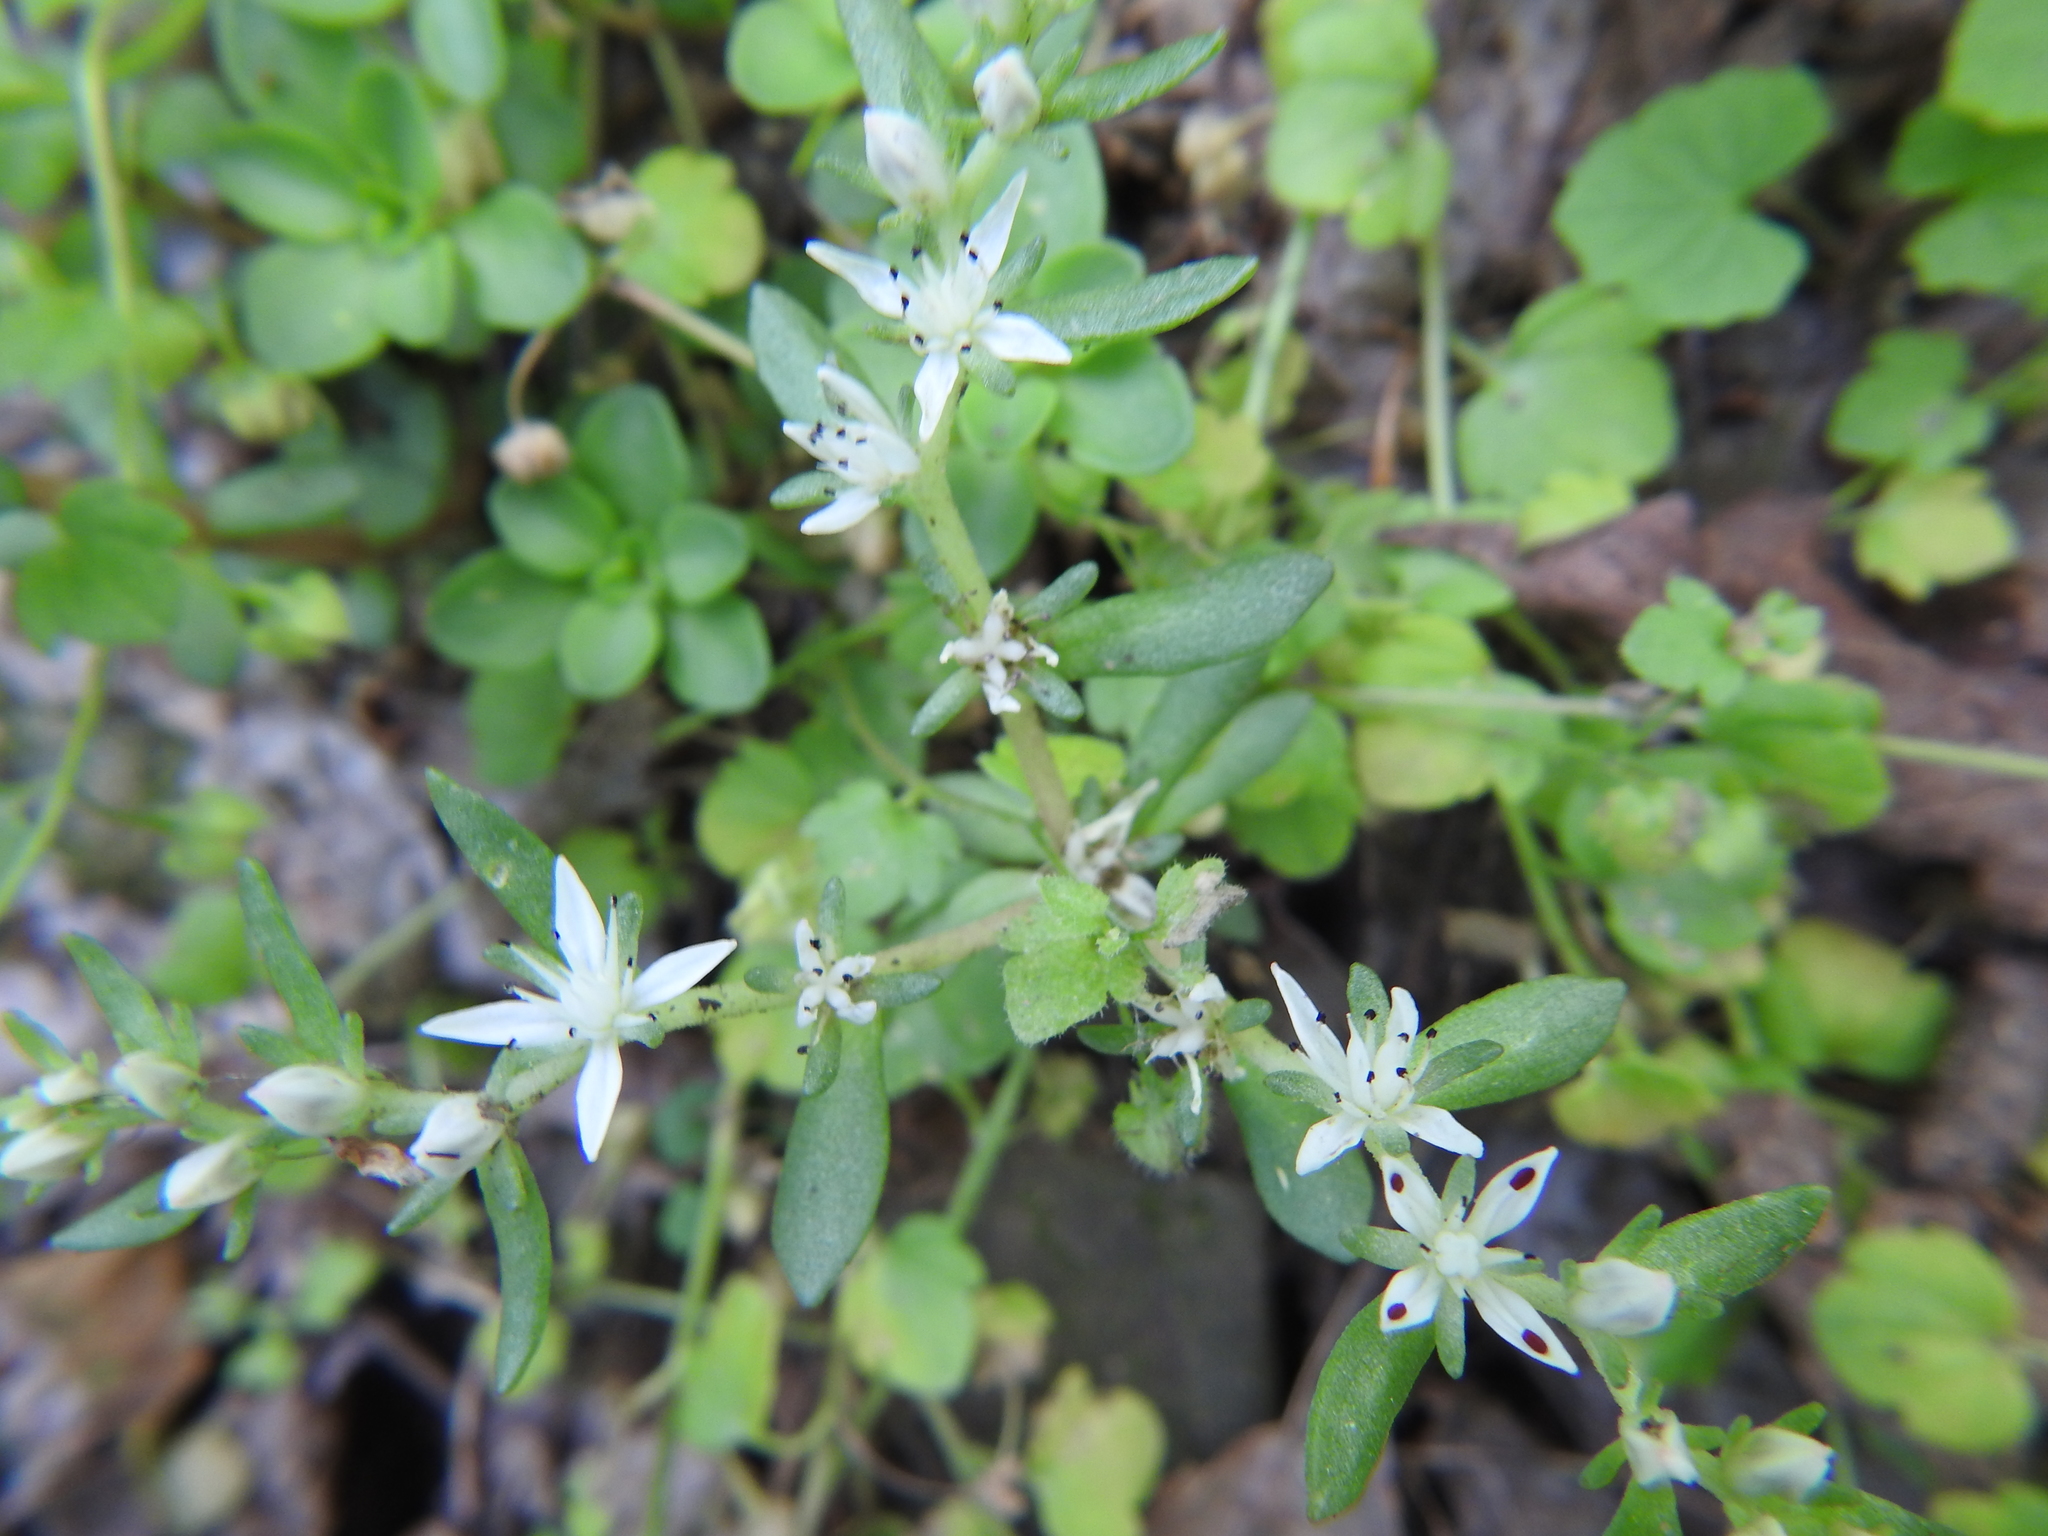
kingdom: Plantae
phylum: Tracheophyta
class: Magnoliopsida
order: Saxifragales
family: Crassulaceae
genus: Sedum
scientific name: Sedum ternatum
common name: Wild stonecrop
